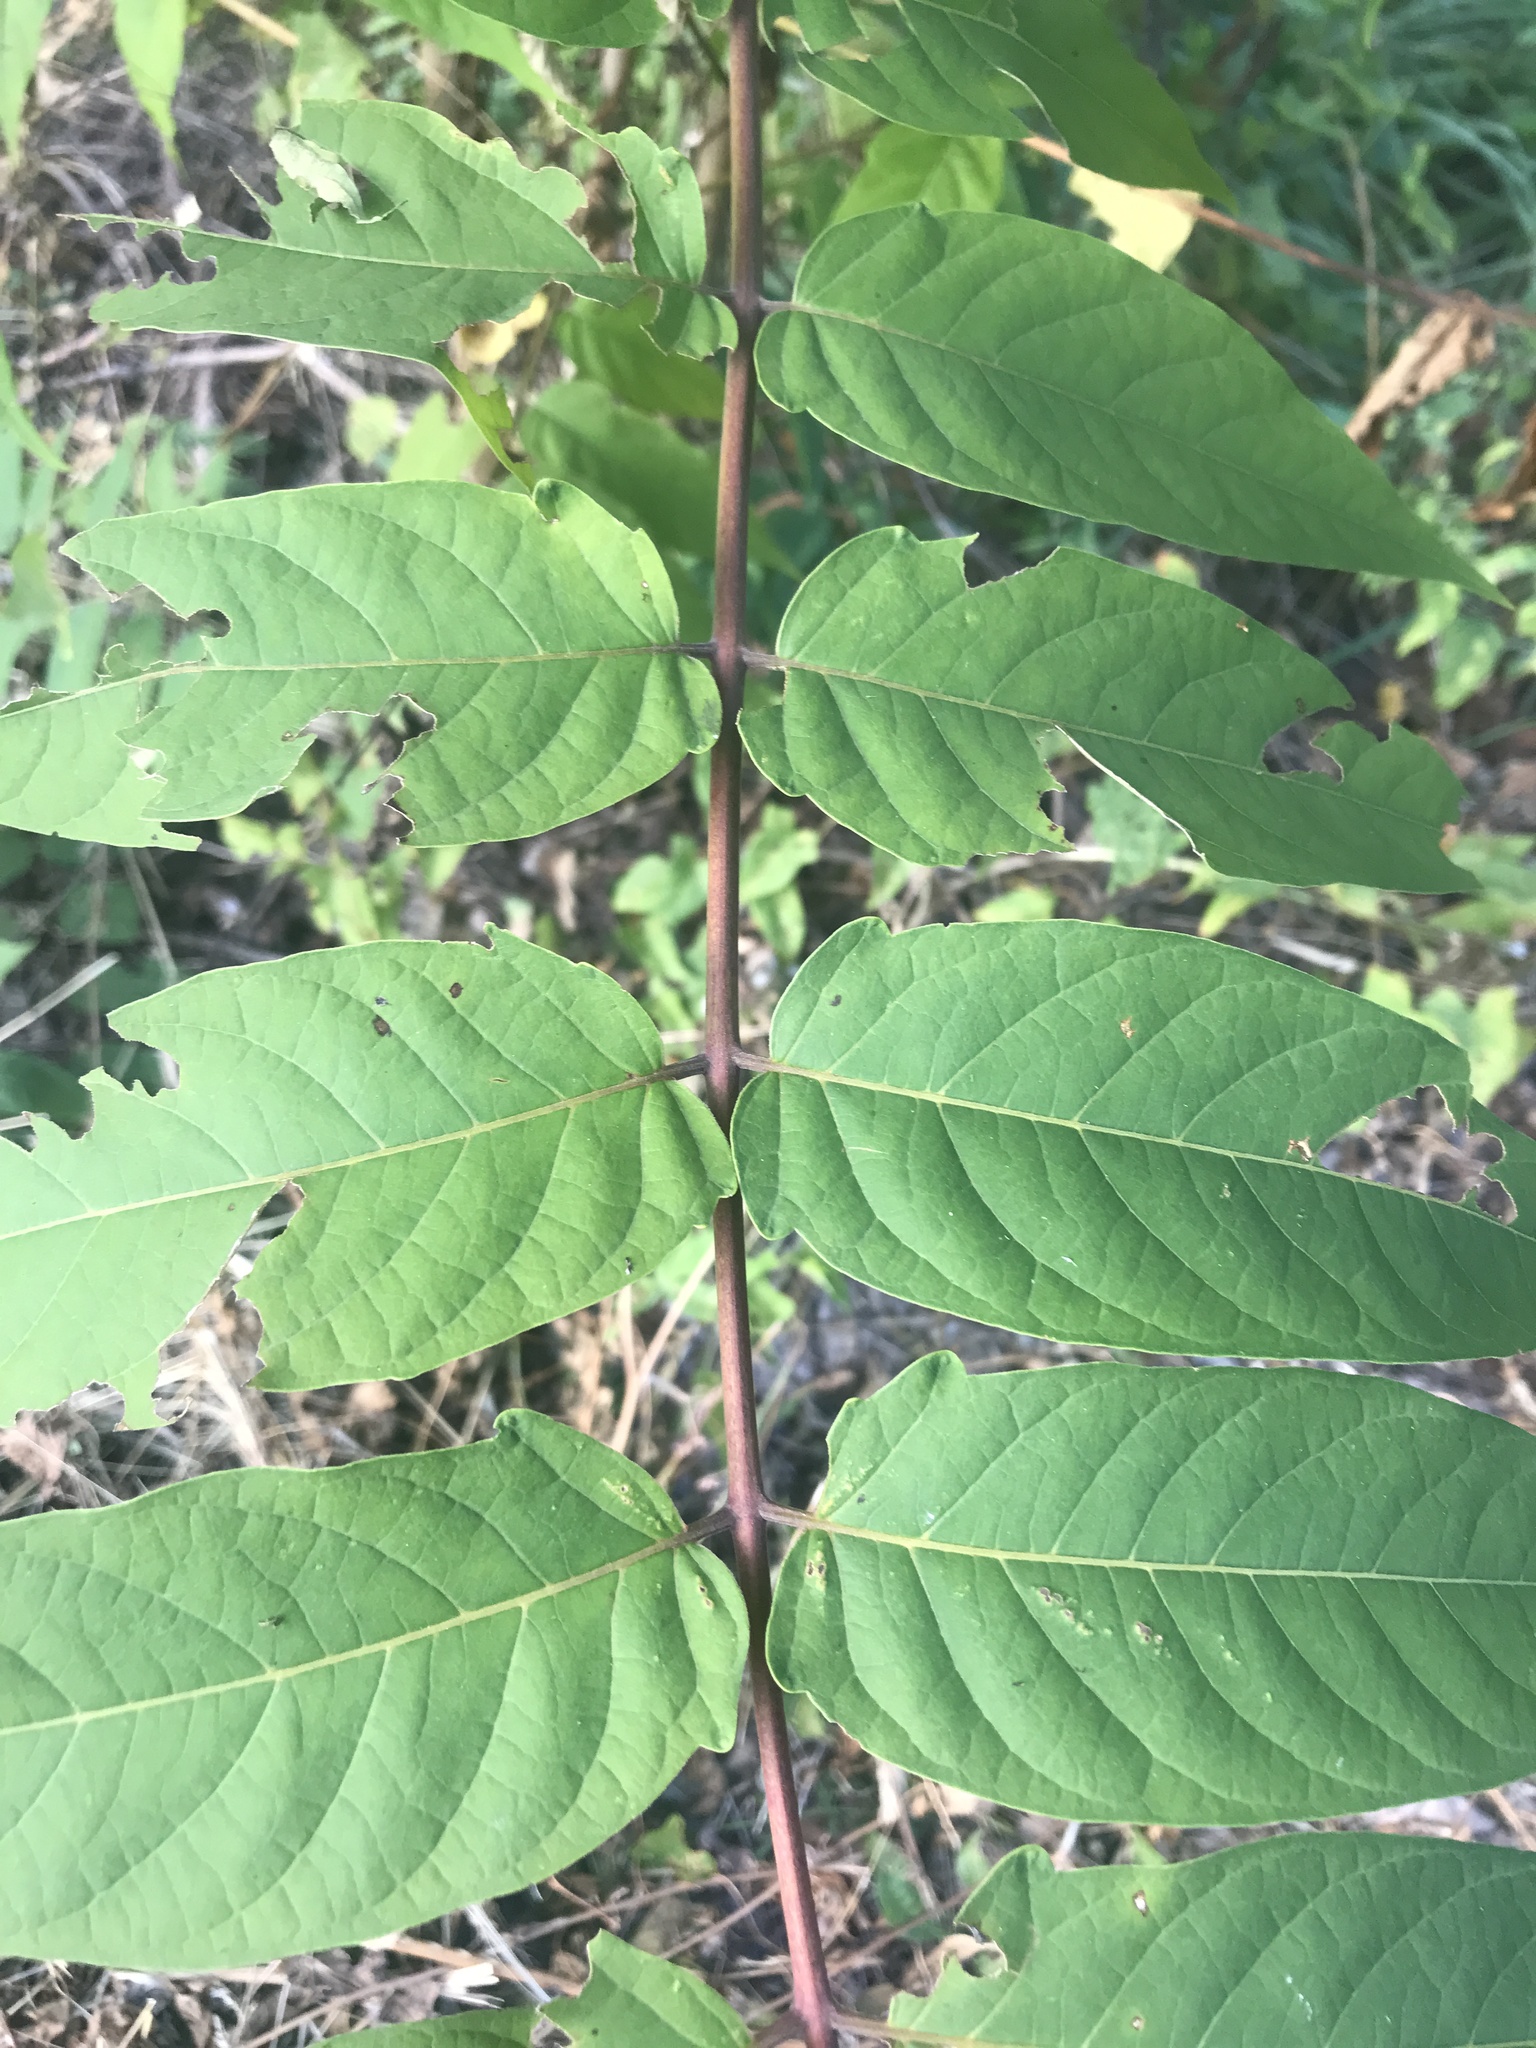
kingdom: Plantae
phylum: Tracheophyta
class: Magnoliopsida
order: Sapindales
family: Simaroubaceae
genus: Ailanthus
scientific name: Ailanthus altissima
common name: Tree-of-heaven
